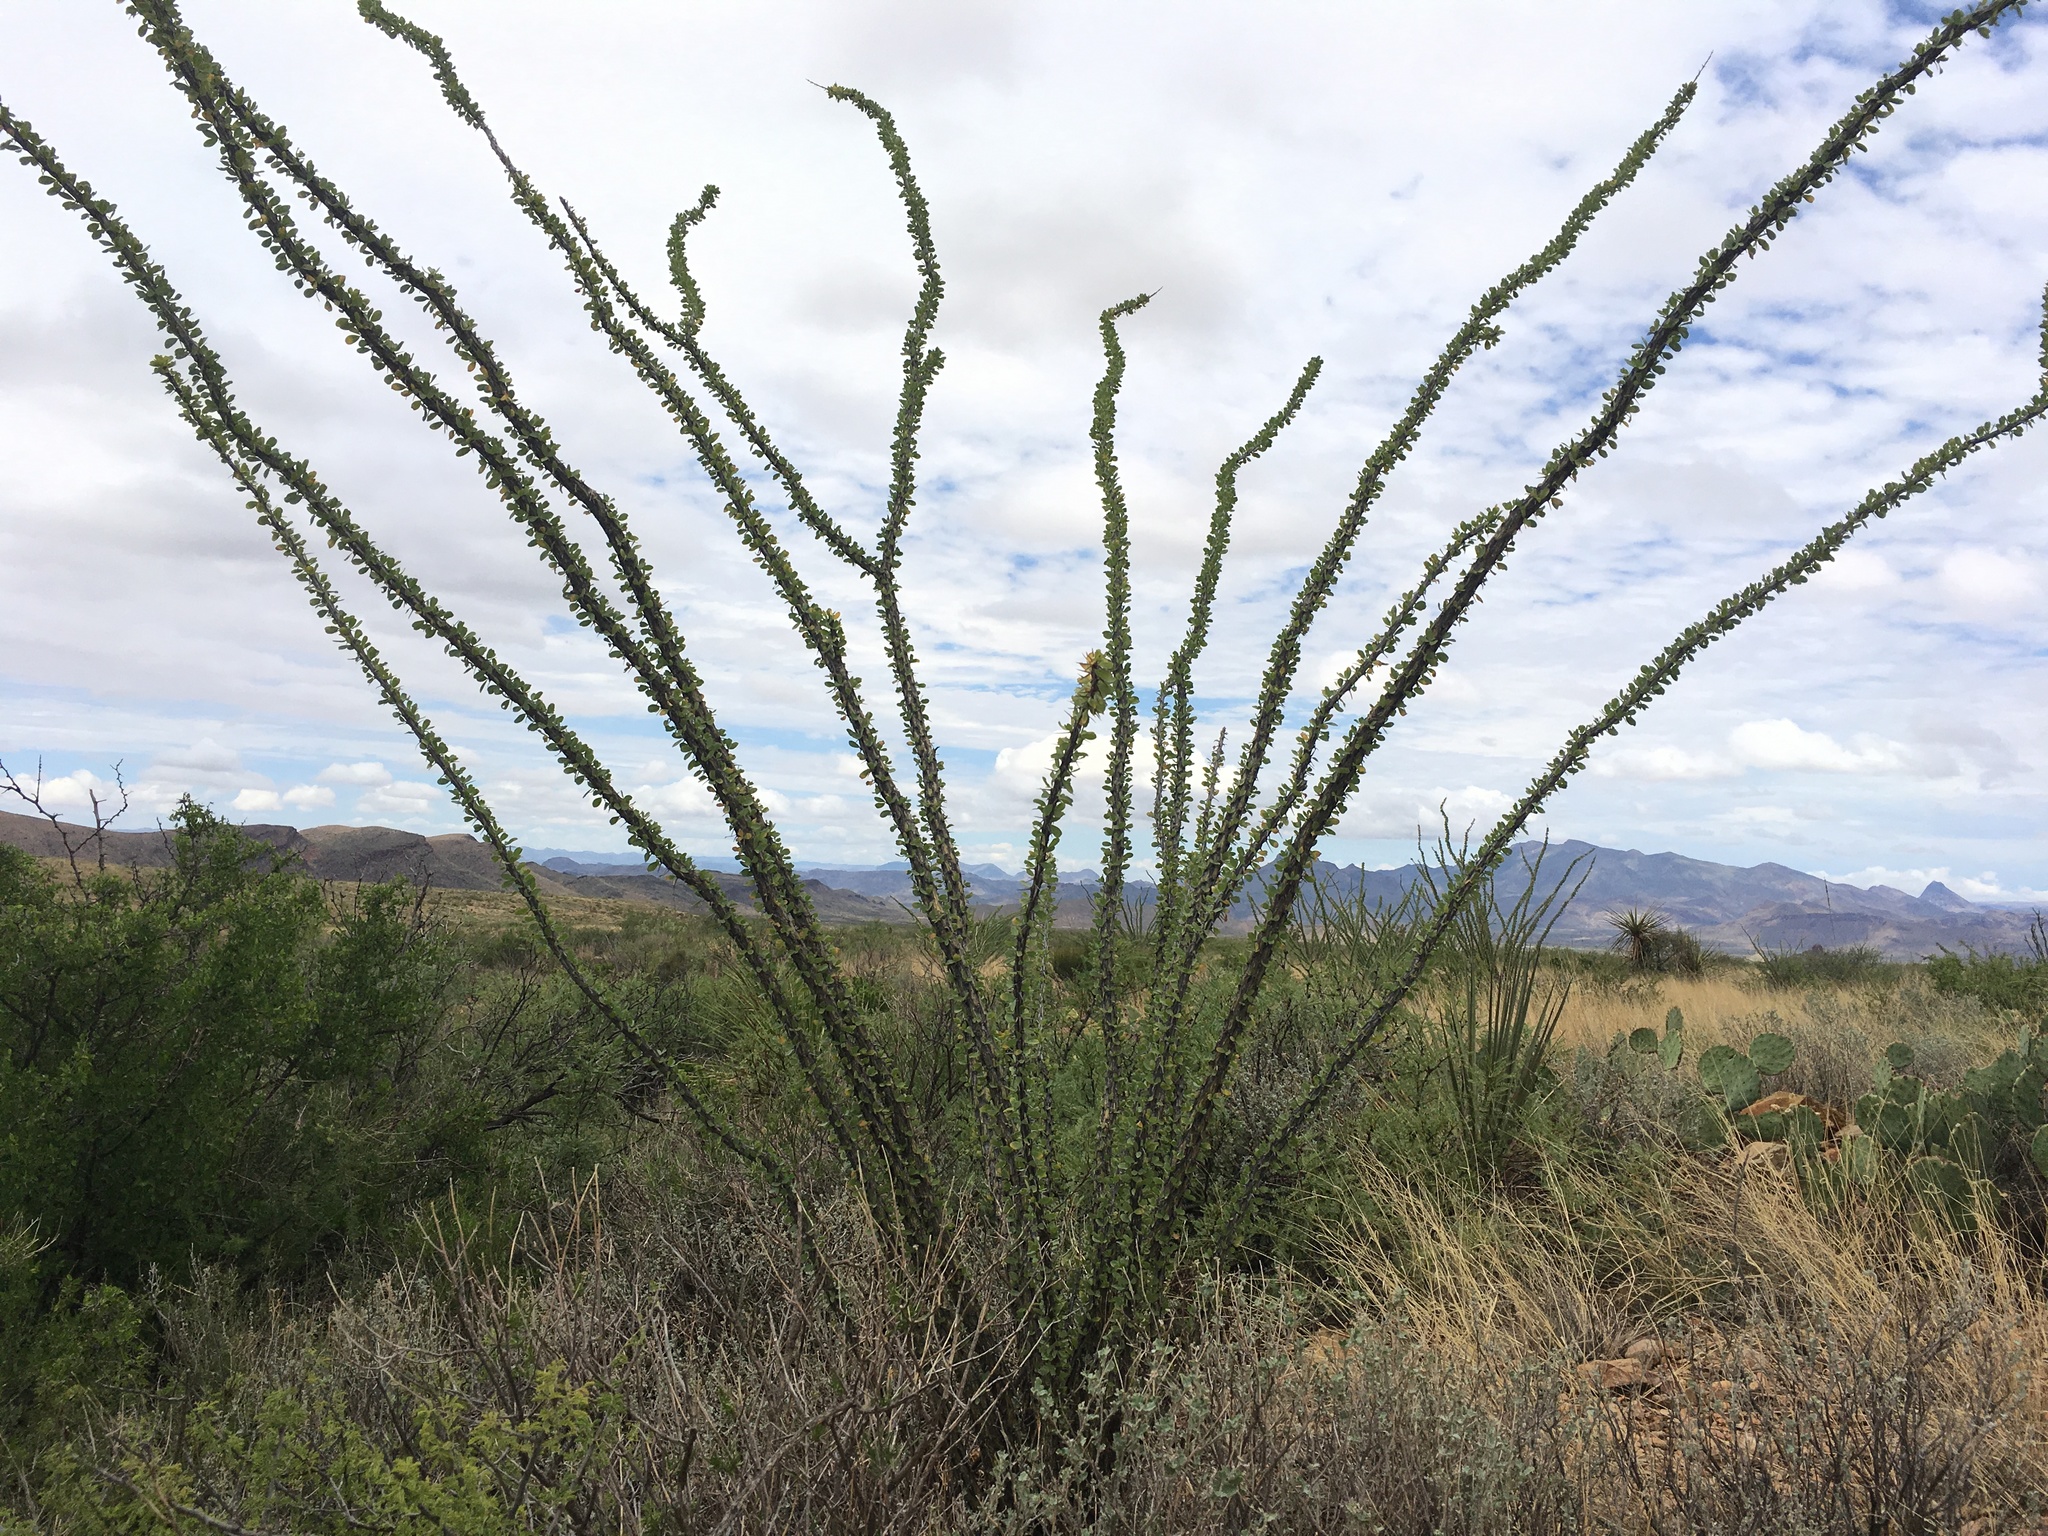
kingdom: Plantae
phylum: Tracheophyta
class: Magnoliopsida
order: Ericales
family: Fouquieriaceae
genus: Fouquieria
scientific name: Fouquieria splendens
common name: Vine-cactus
